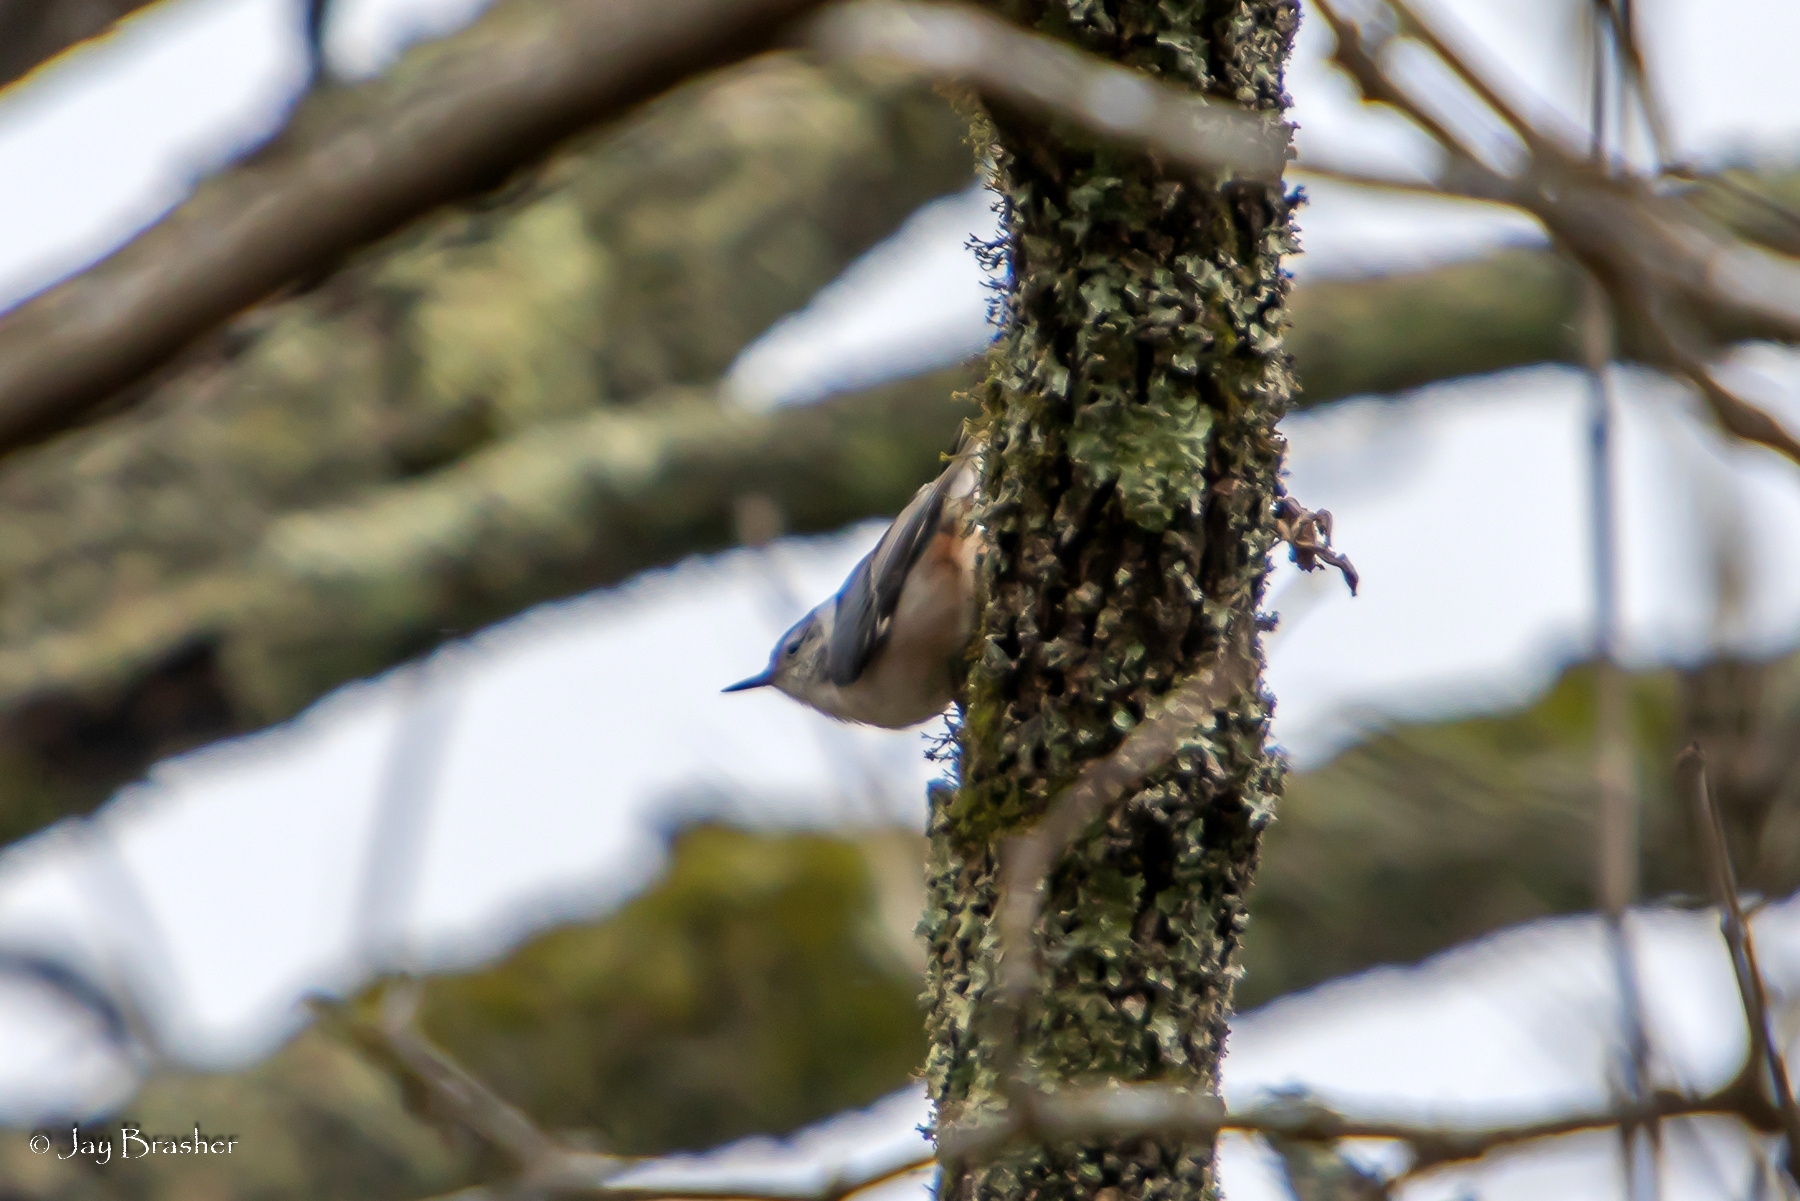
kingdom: Animalia
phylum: Chordata
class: Aves
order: Passeriformes
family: Sittidae
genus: Sitta
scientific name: Sitta carolinensis
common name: White-breasted nuthatch
